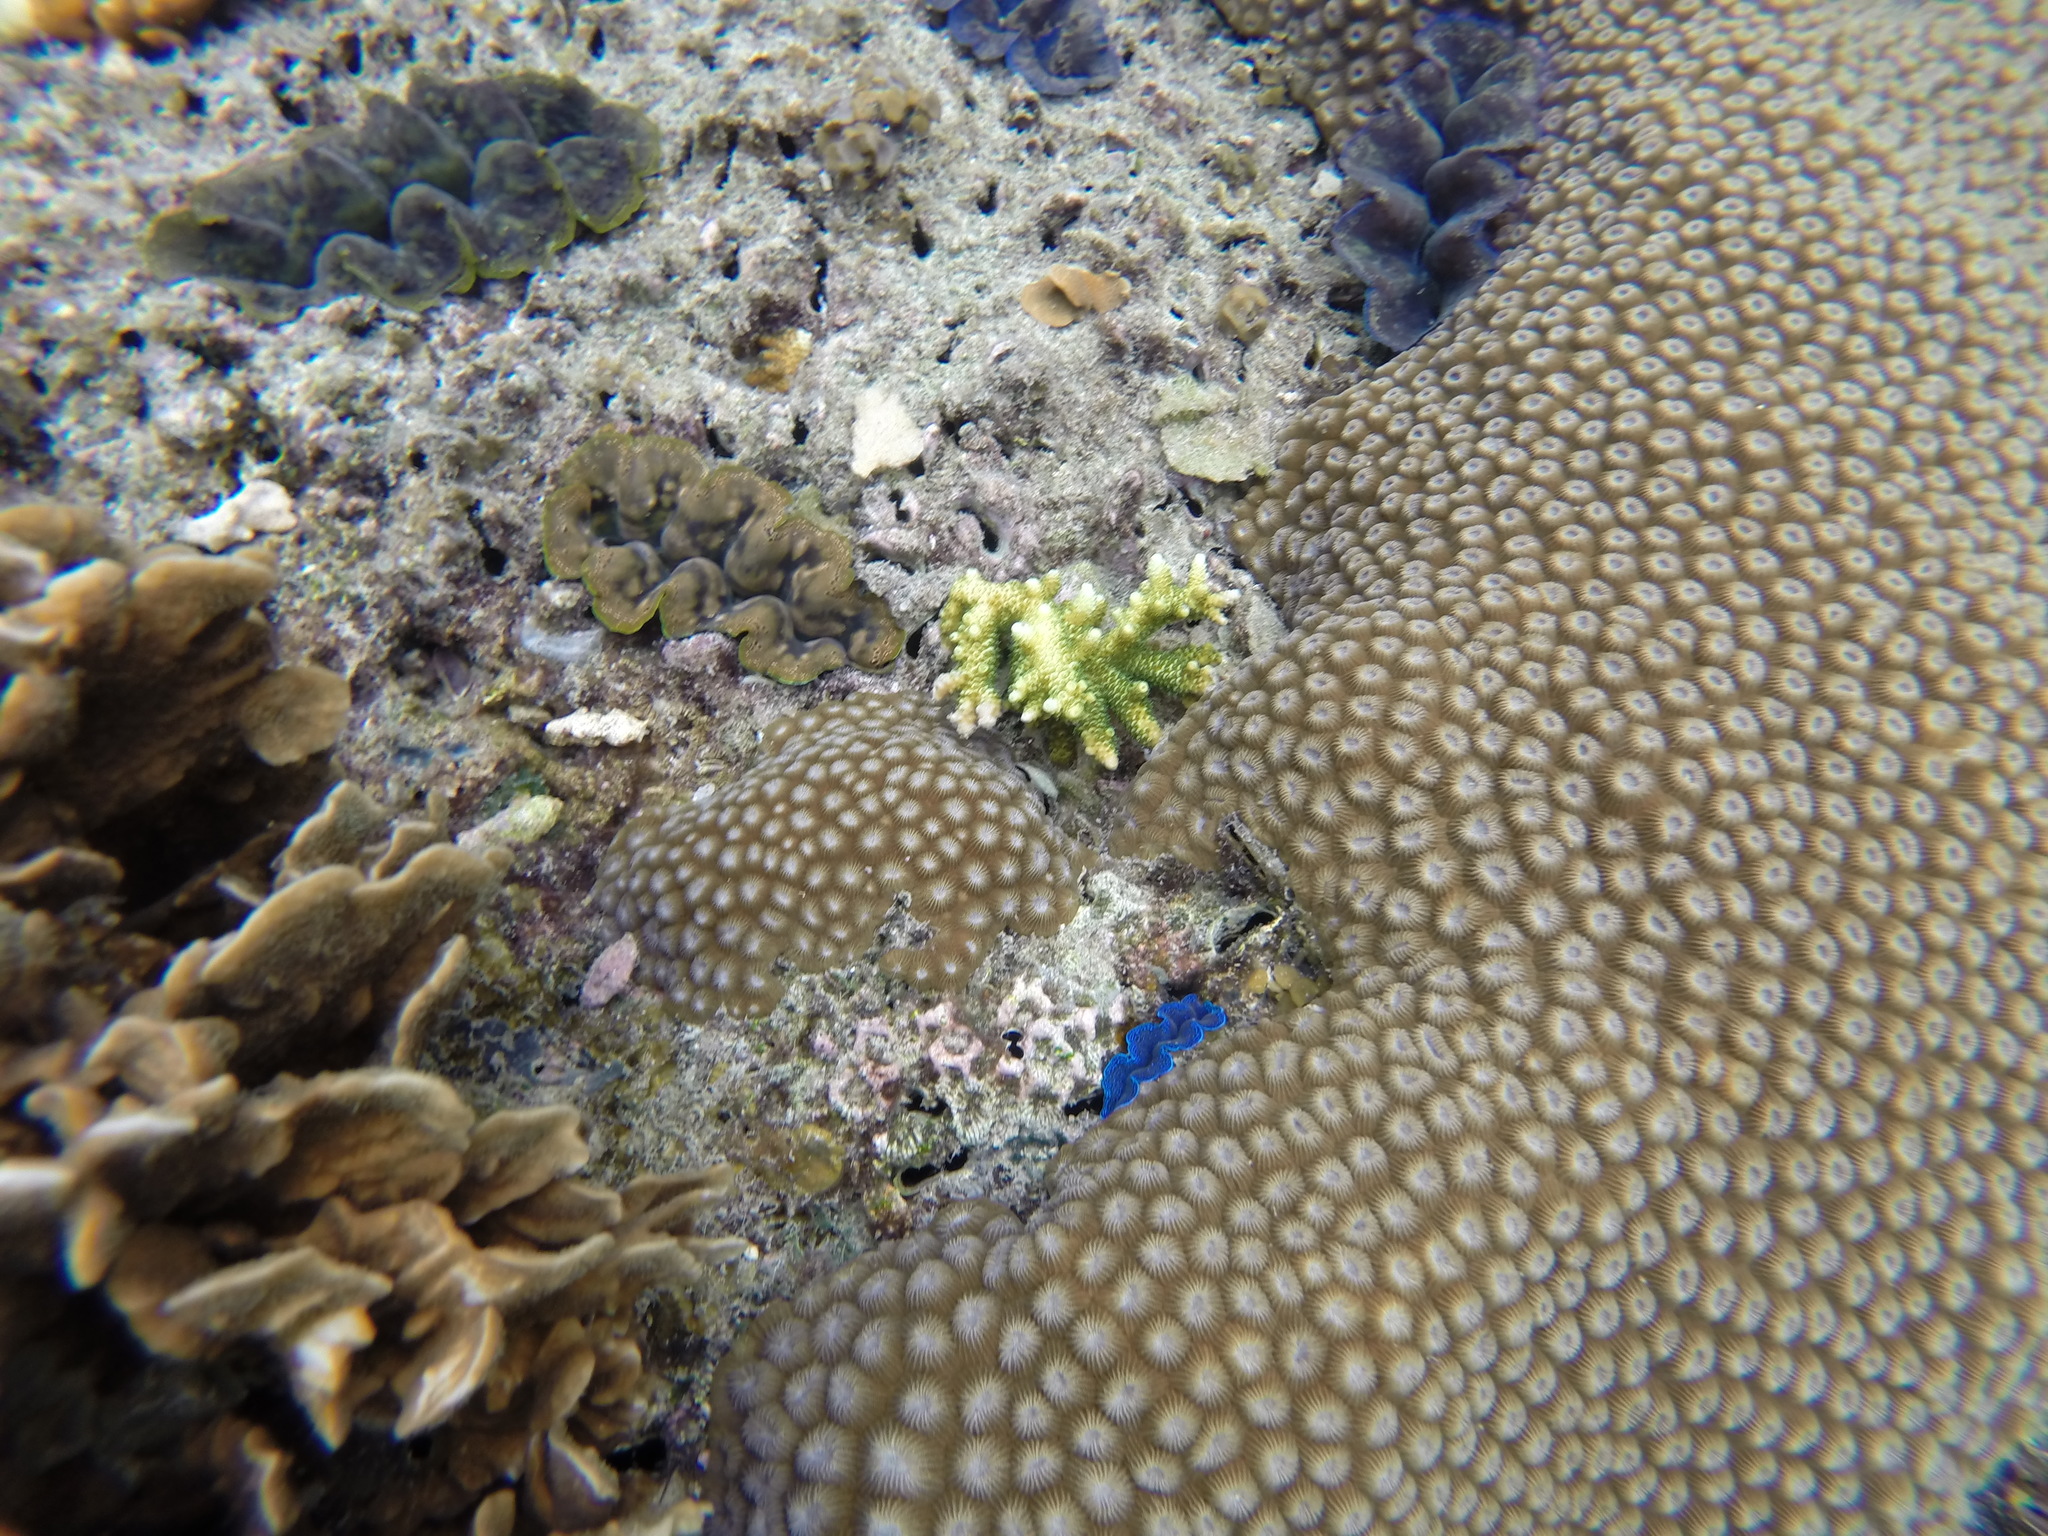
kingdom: Animalia
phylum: Mollusca
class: Bivalvia
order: Cardiida
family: Cardiidae
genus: Tridacna
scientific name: Tridacna crocea
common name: Boring clam
